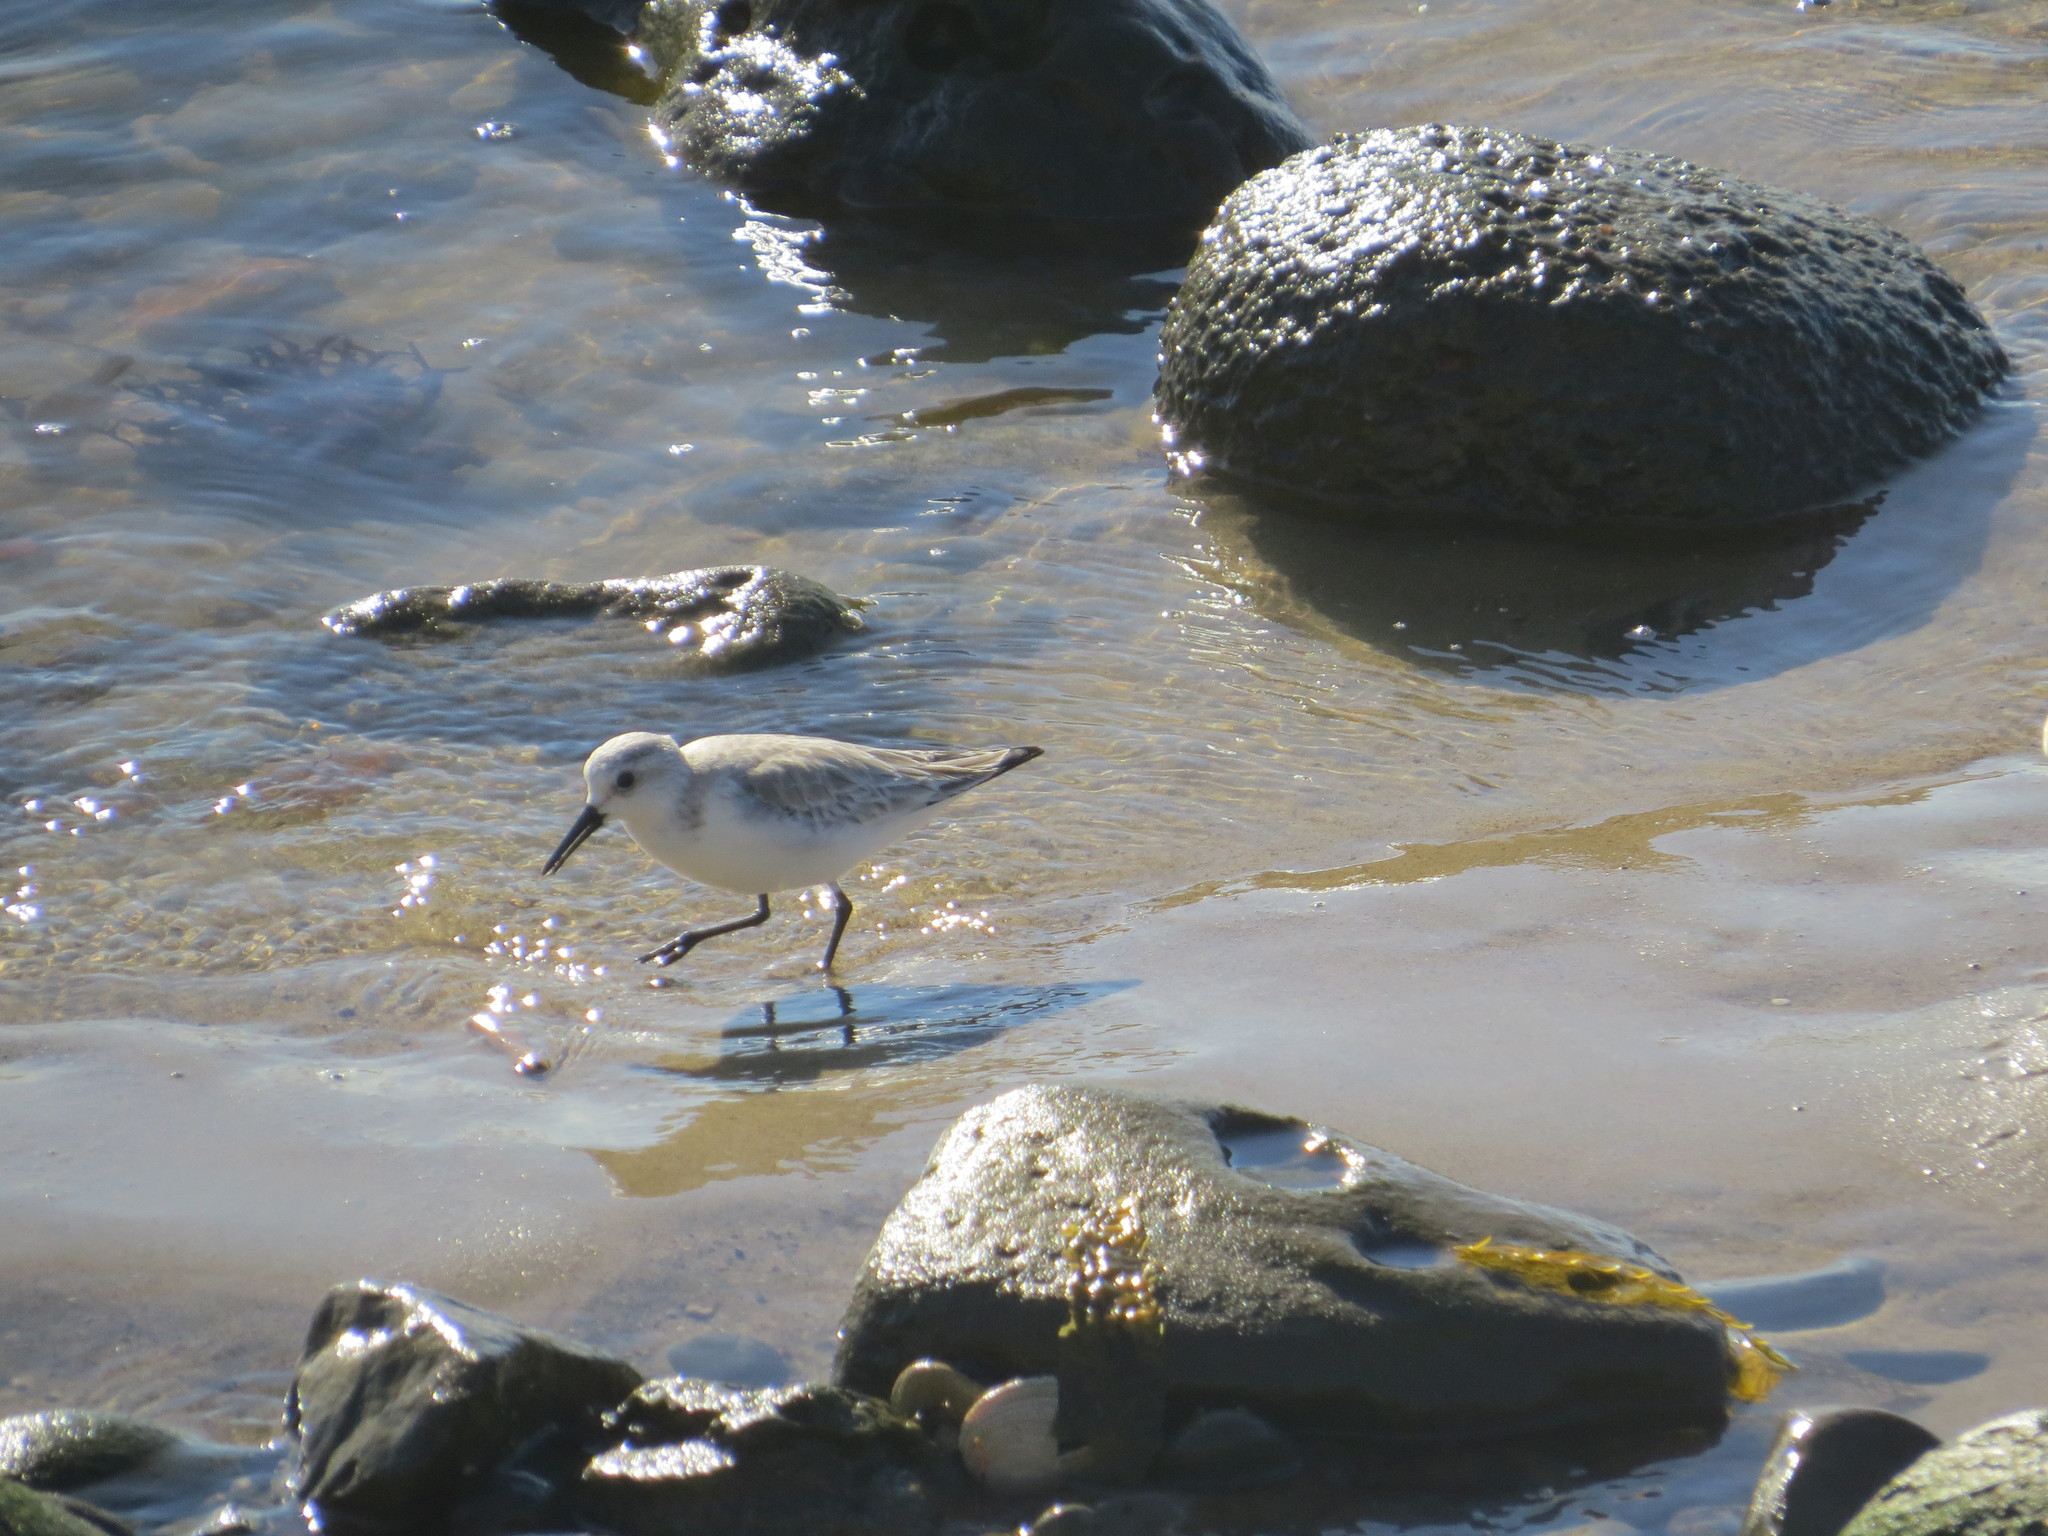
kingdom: Animalia
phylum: Chordata
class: Aves
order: Charadriiformes
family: Scolopacidae
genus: Calidris
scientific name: Calidris alba
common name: Sanderling
